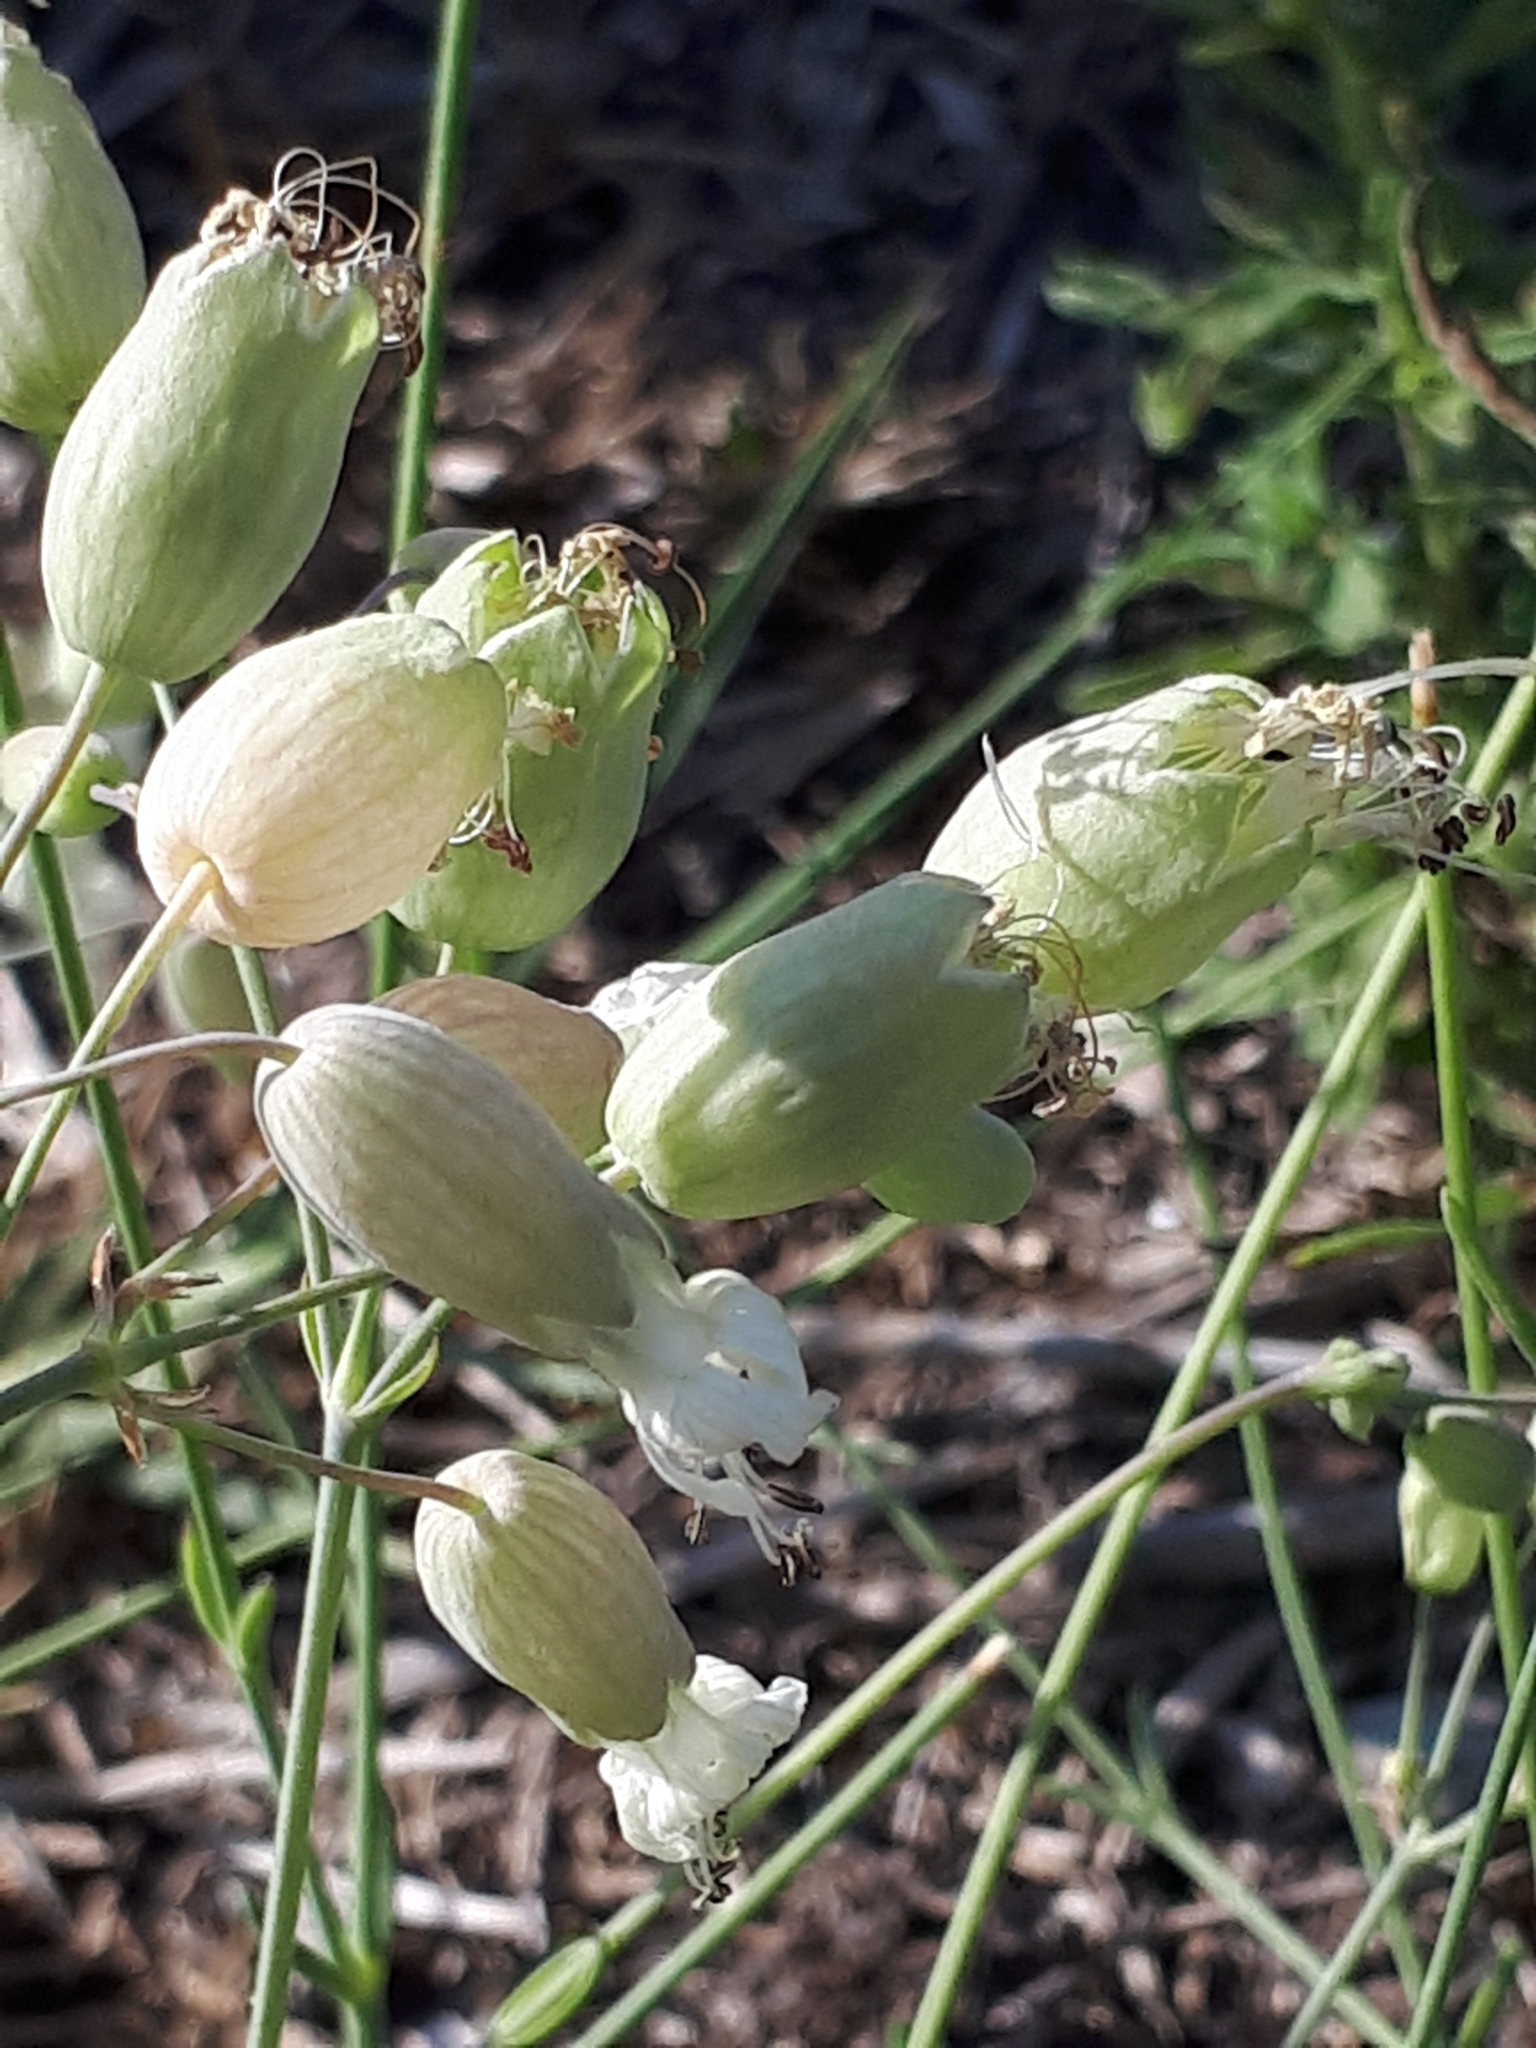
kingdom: Plantae
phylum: Tracheophyta
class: Magnoliopsida
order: Caryophyllales
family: Caryophyllaceae
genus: Silene
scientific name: Silene vulgaris
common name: Bladder campion
